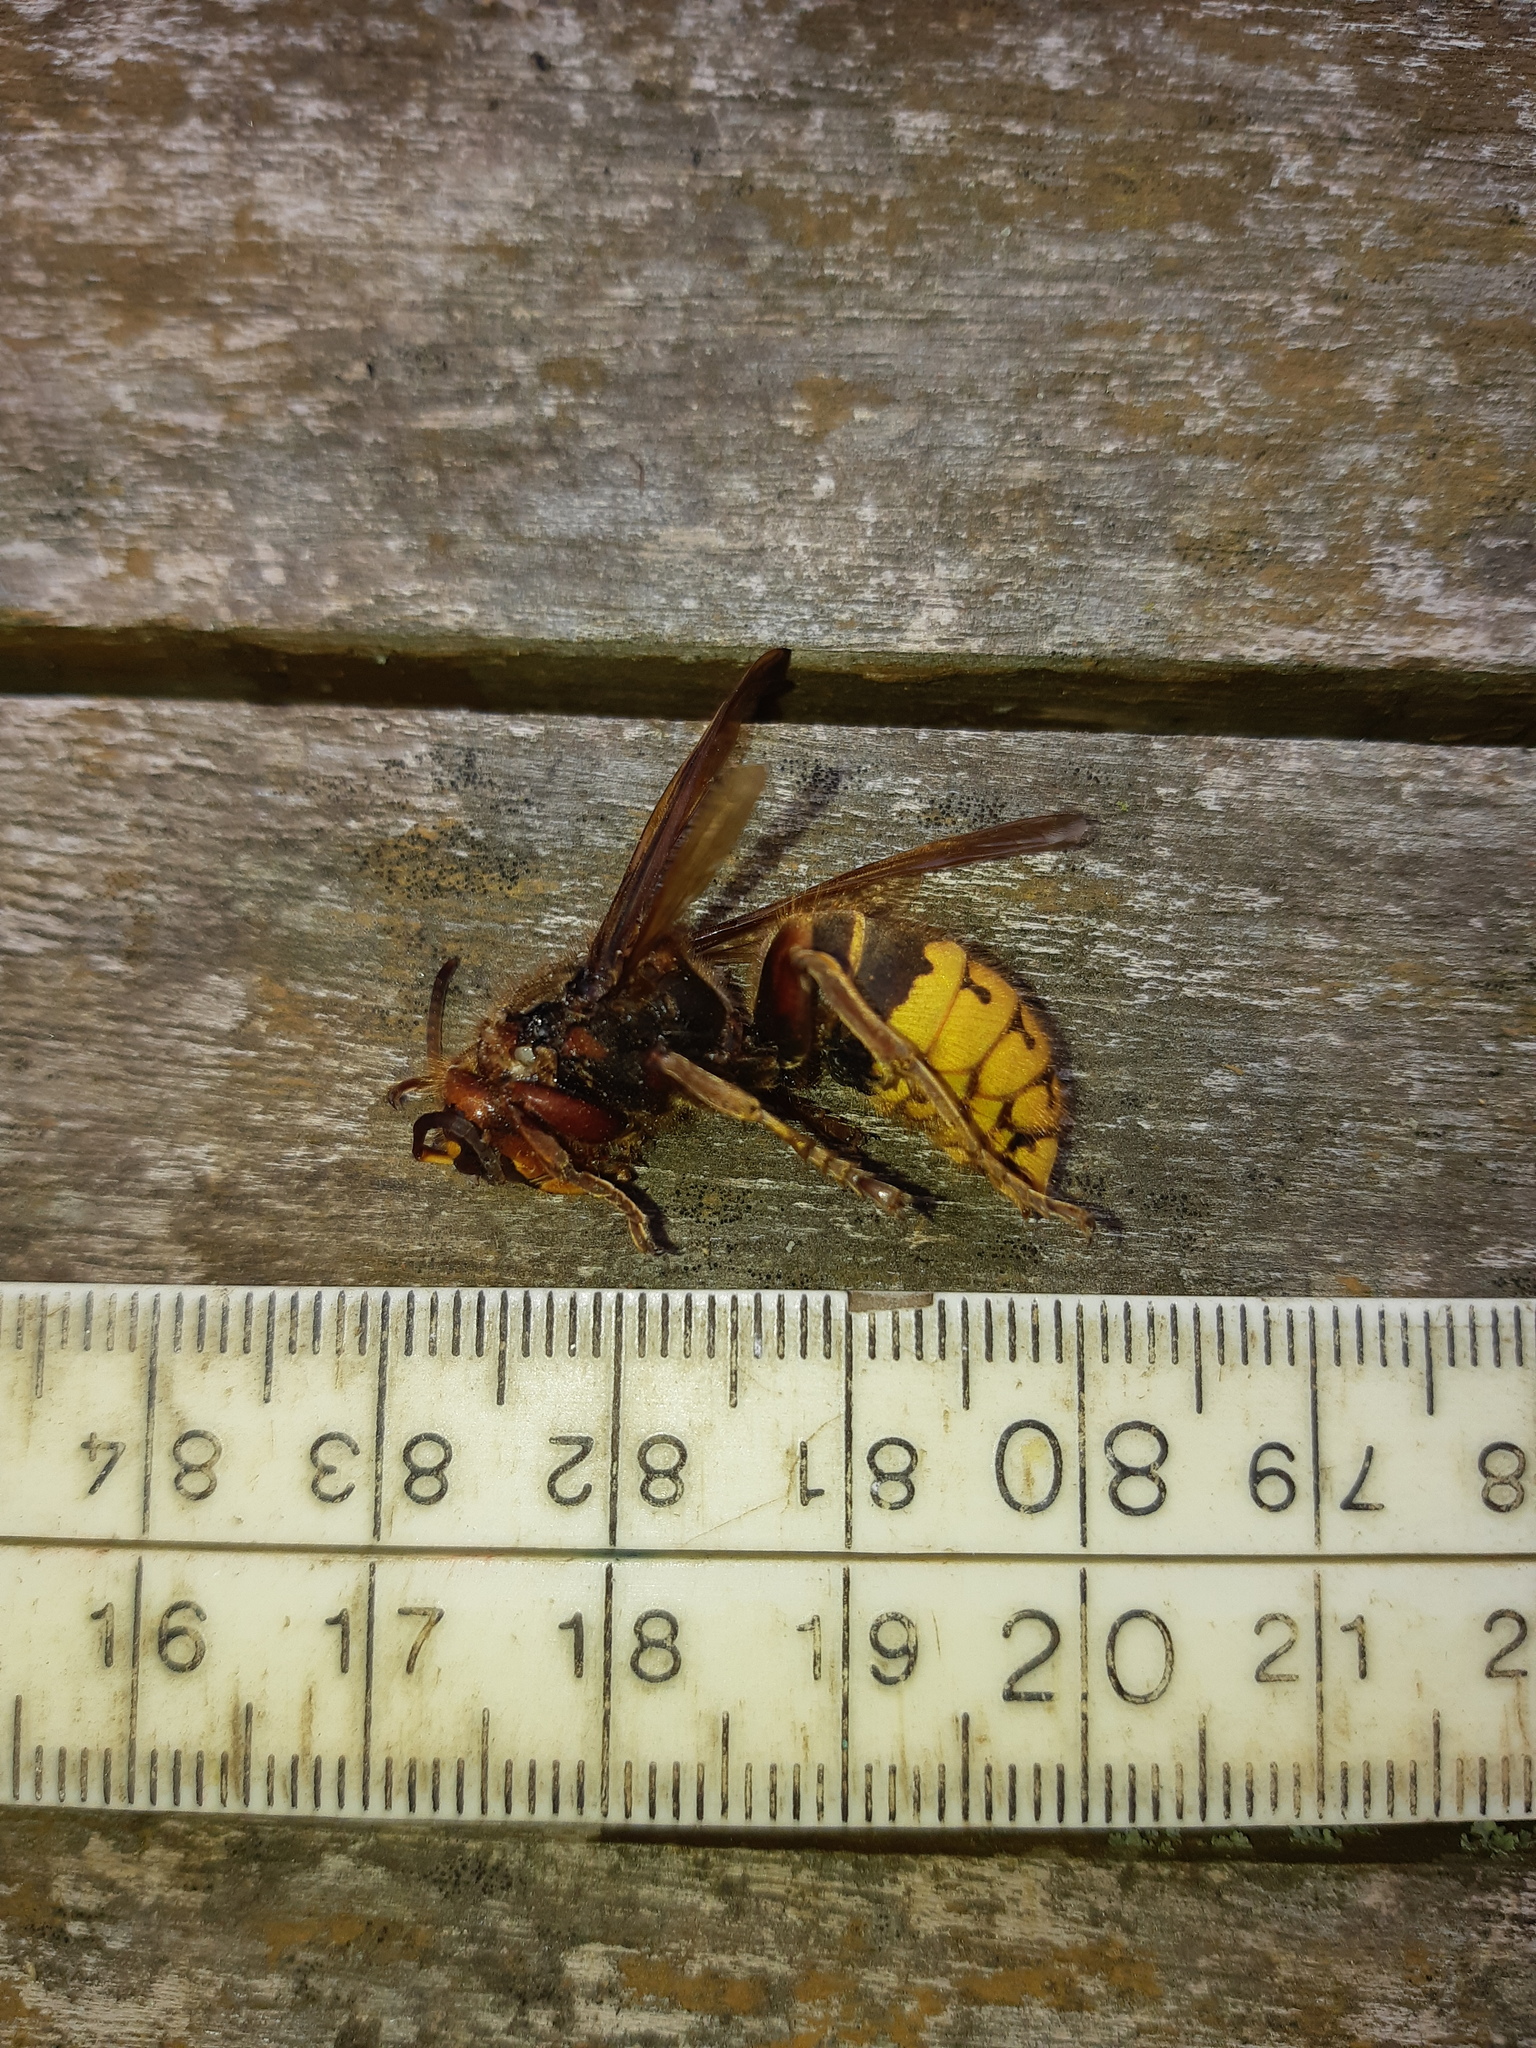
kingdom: Animalia
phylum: Arthropoda
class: Insecta
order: Hymenoptera
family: Vespidae
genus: Vespa
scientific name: Vespa crabro
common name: Hornet
